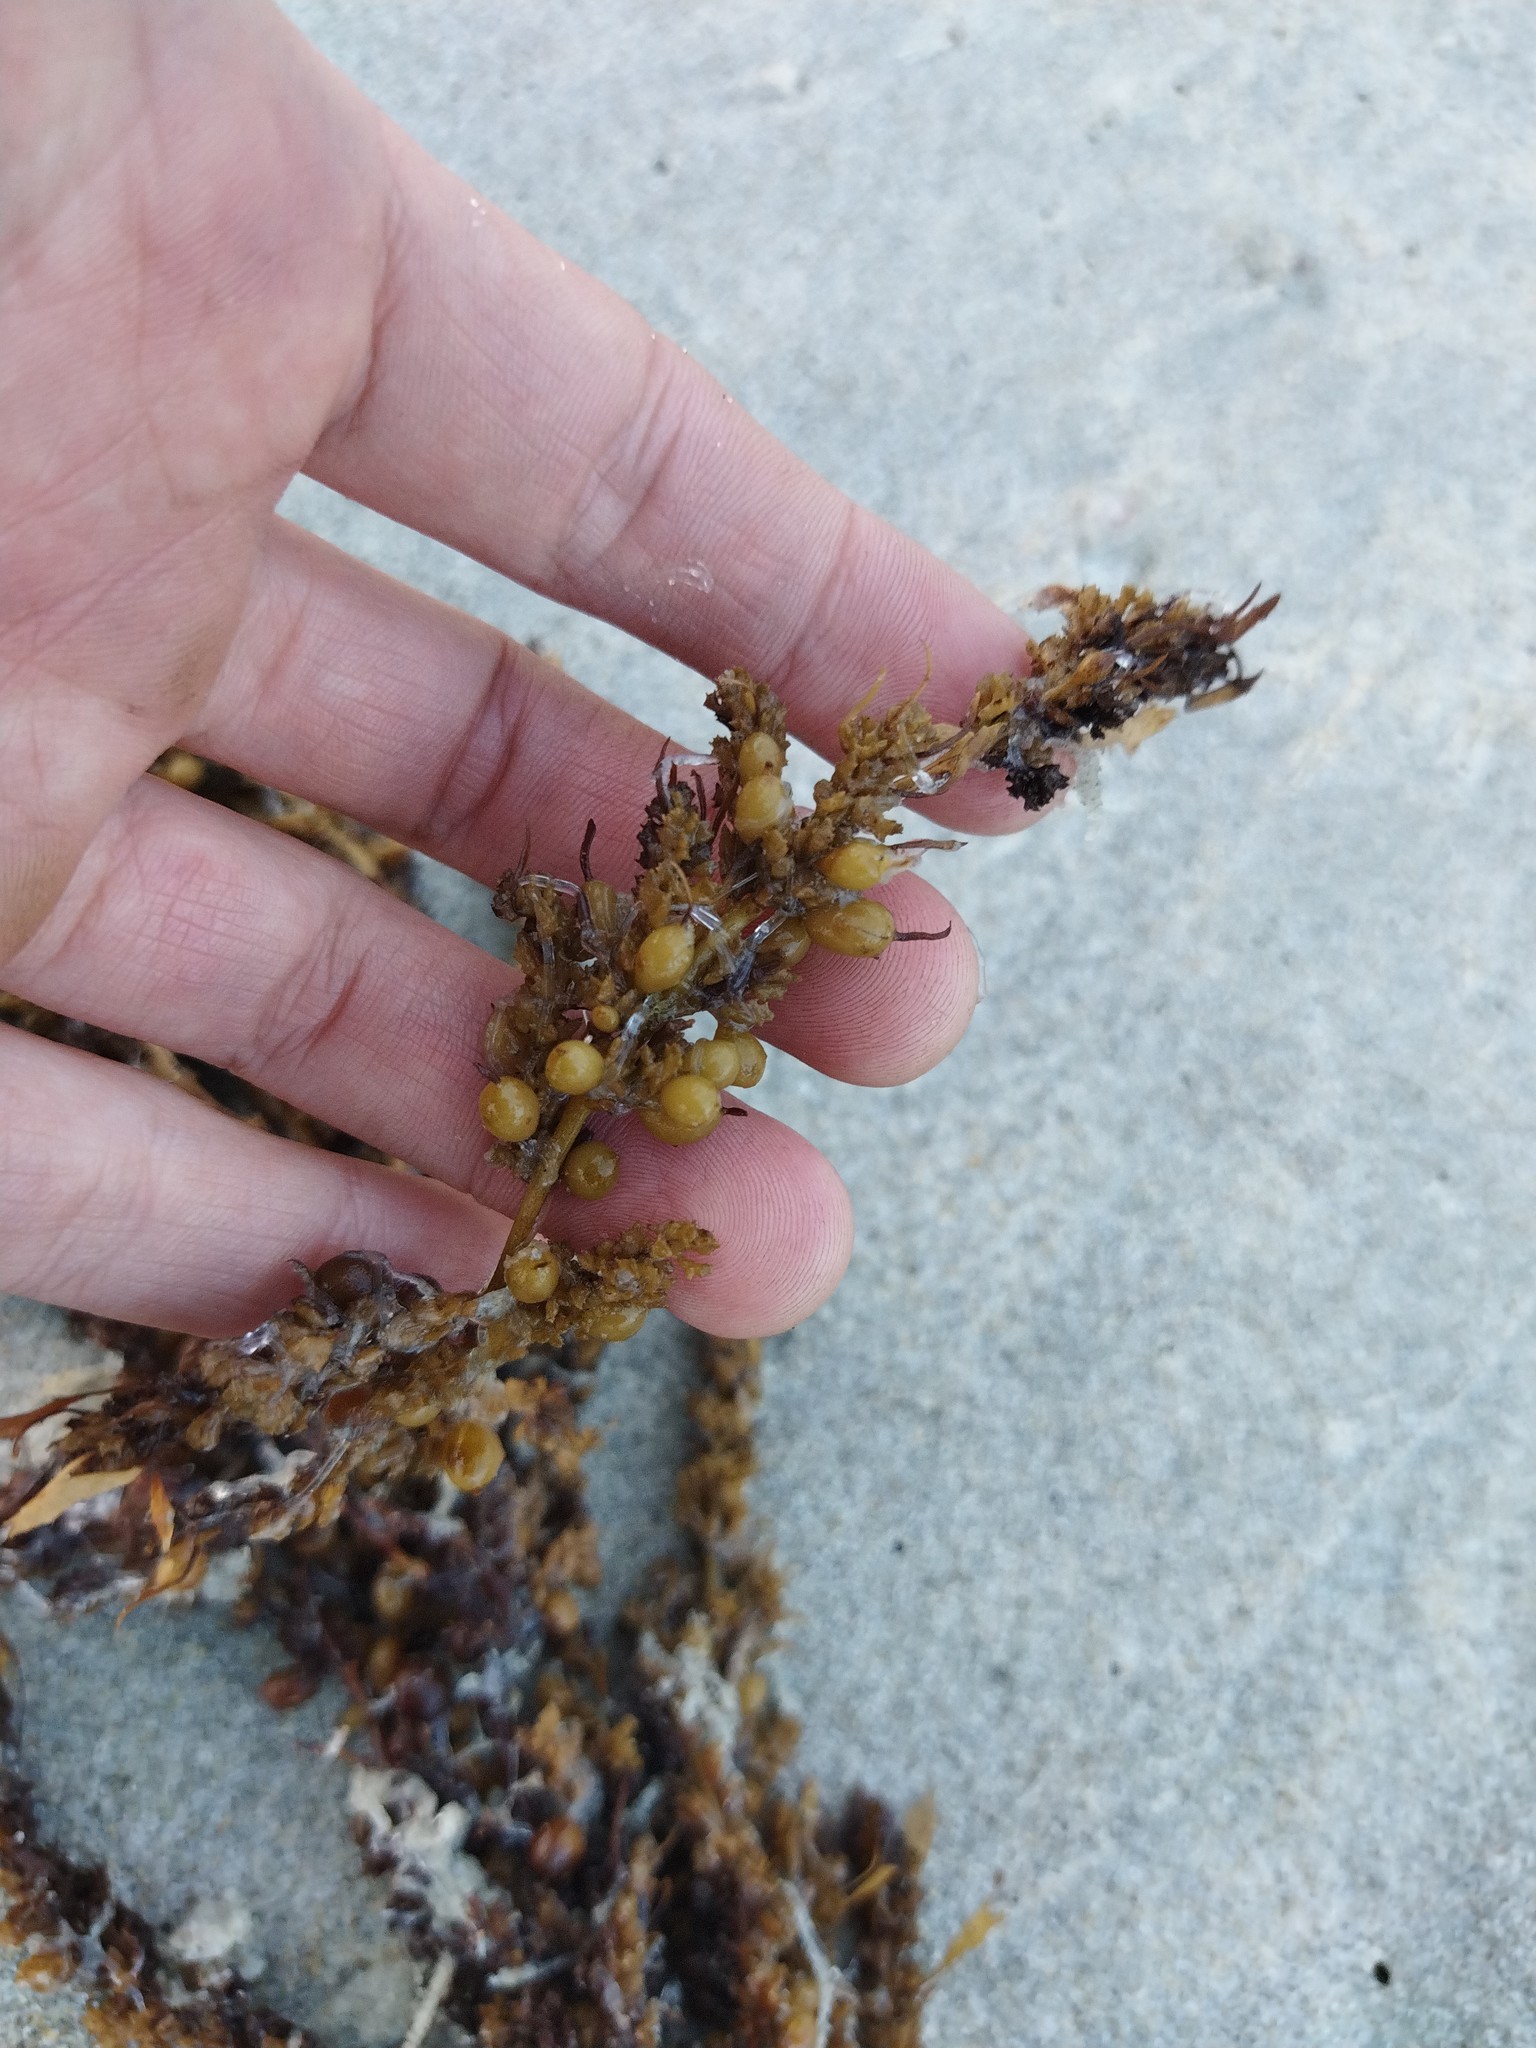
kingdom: Chromista
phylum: Ochrophyta
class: Phaeophyceae
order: Fucales
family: Sargassaceae
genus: Sargassum
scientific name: Sargassum sinclairii
